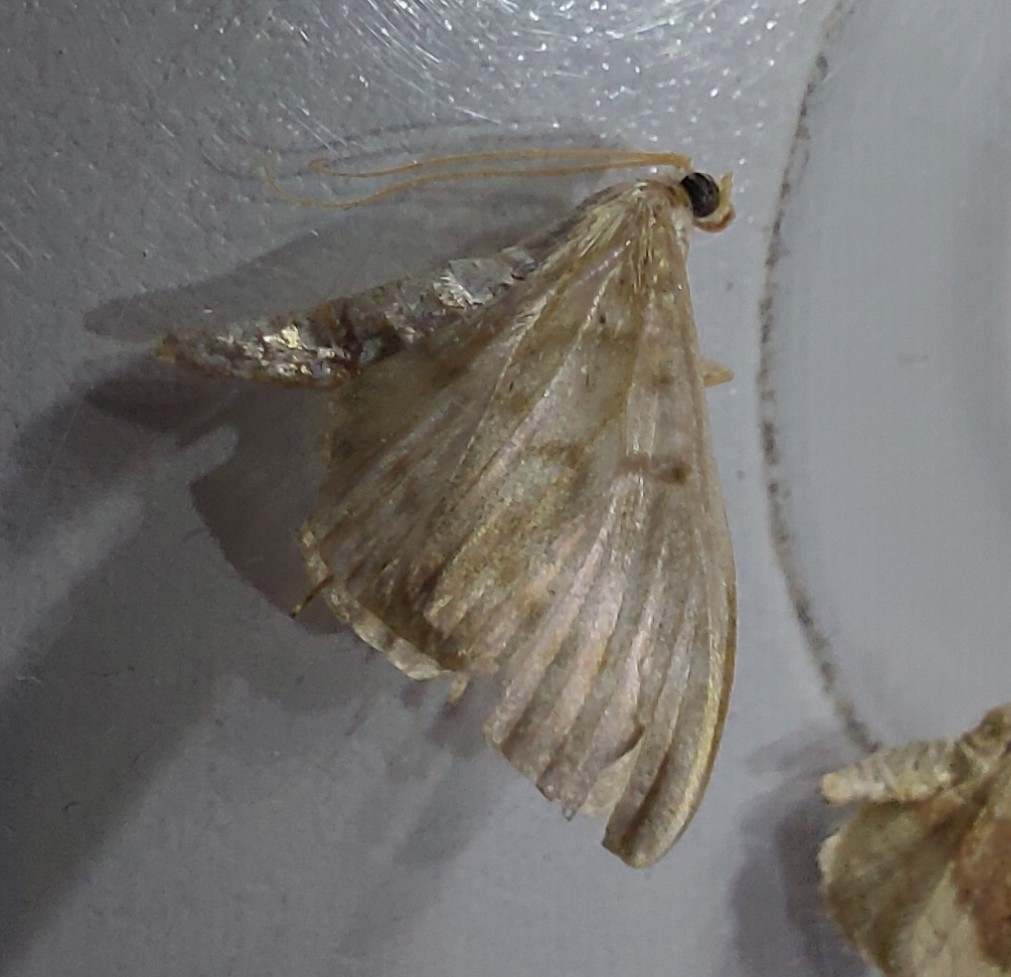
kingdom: Animalia
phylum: Arthropoda
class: Insecta
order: Lepidoptera
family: Crambidae
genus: Patania
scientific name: Patania ruralis
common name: Mother of pearl
